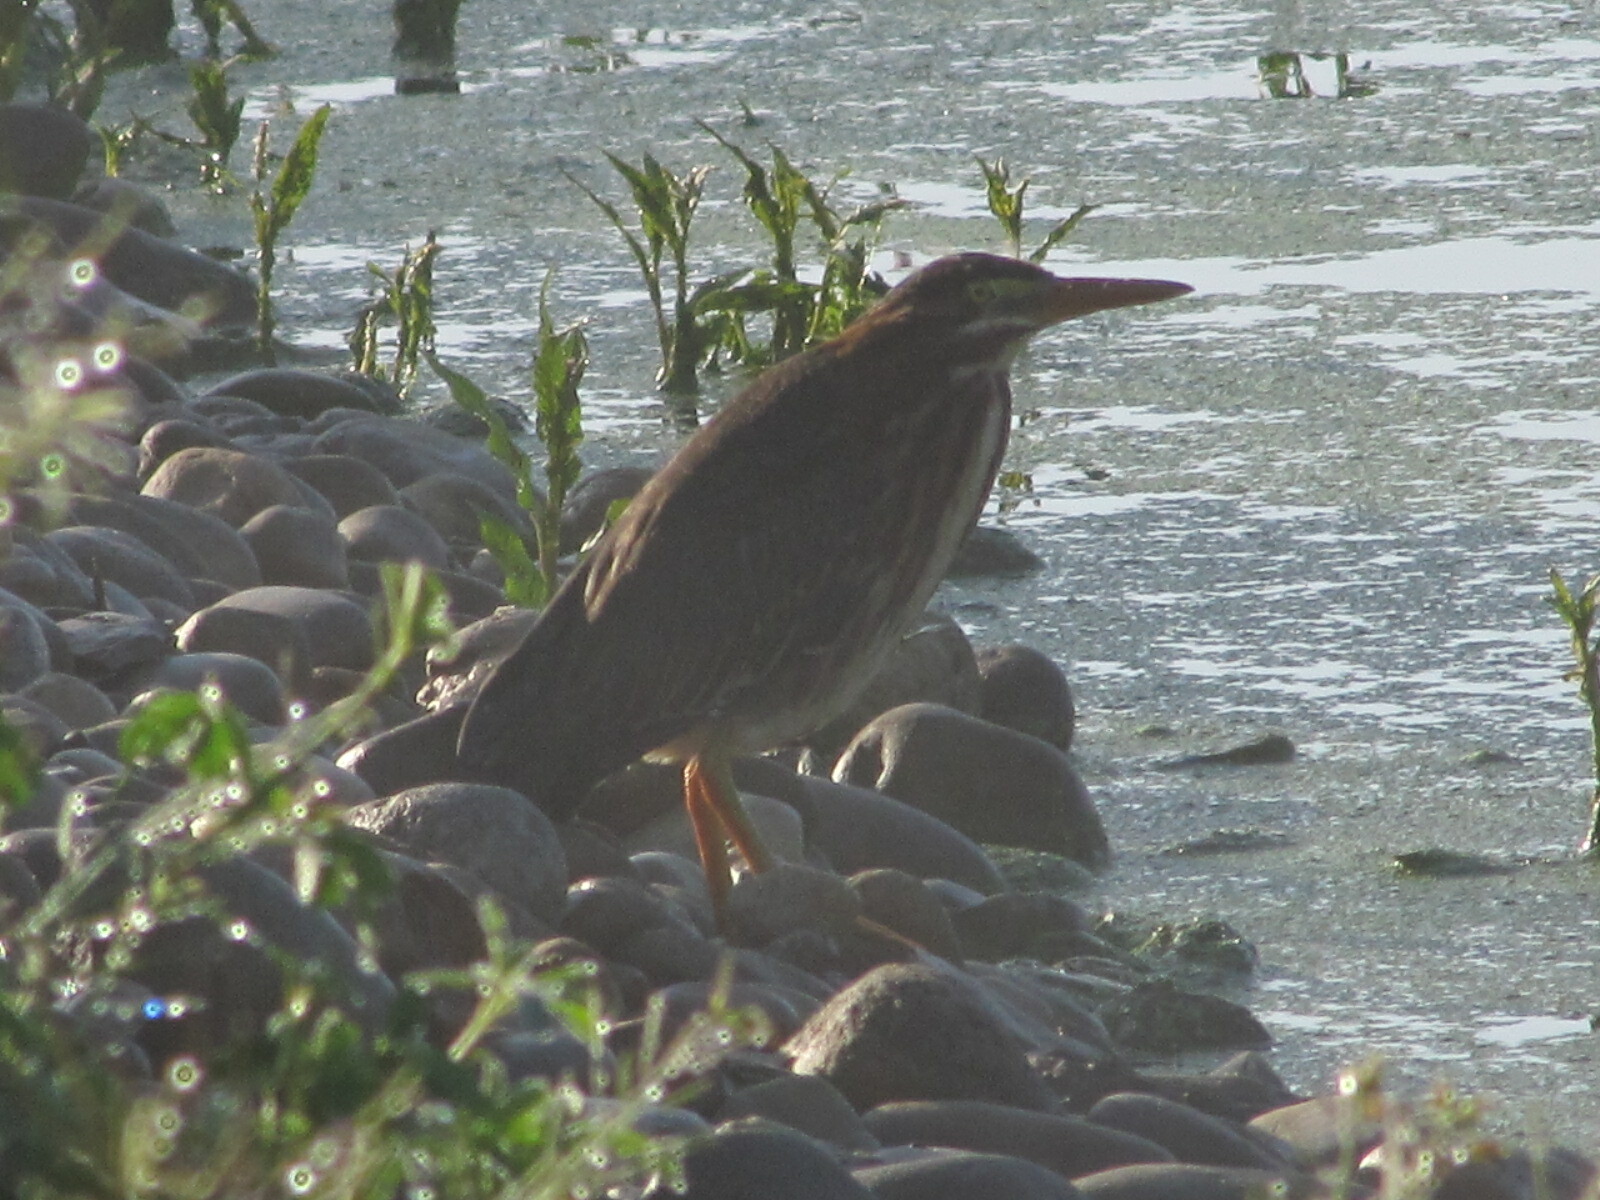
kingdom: Animalia
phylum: Chordata
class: Aves
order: Pelecaniformes
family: Ardeidae
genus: Butorides
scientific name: Butorides virescens
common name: Green heron
